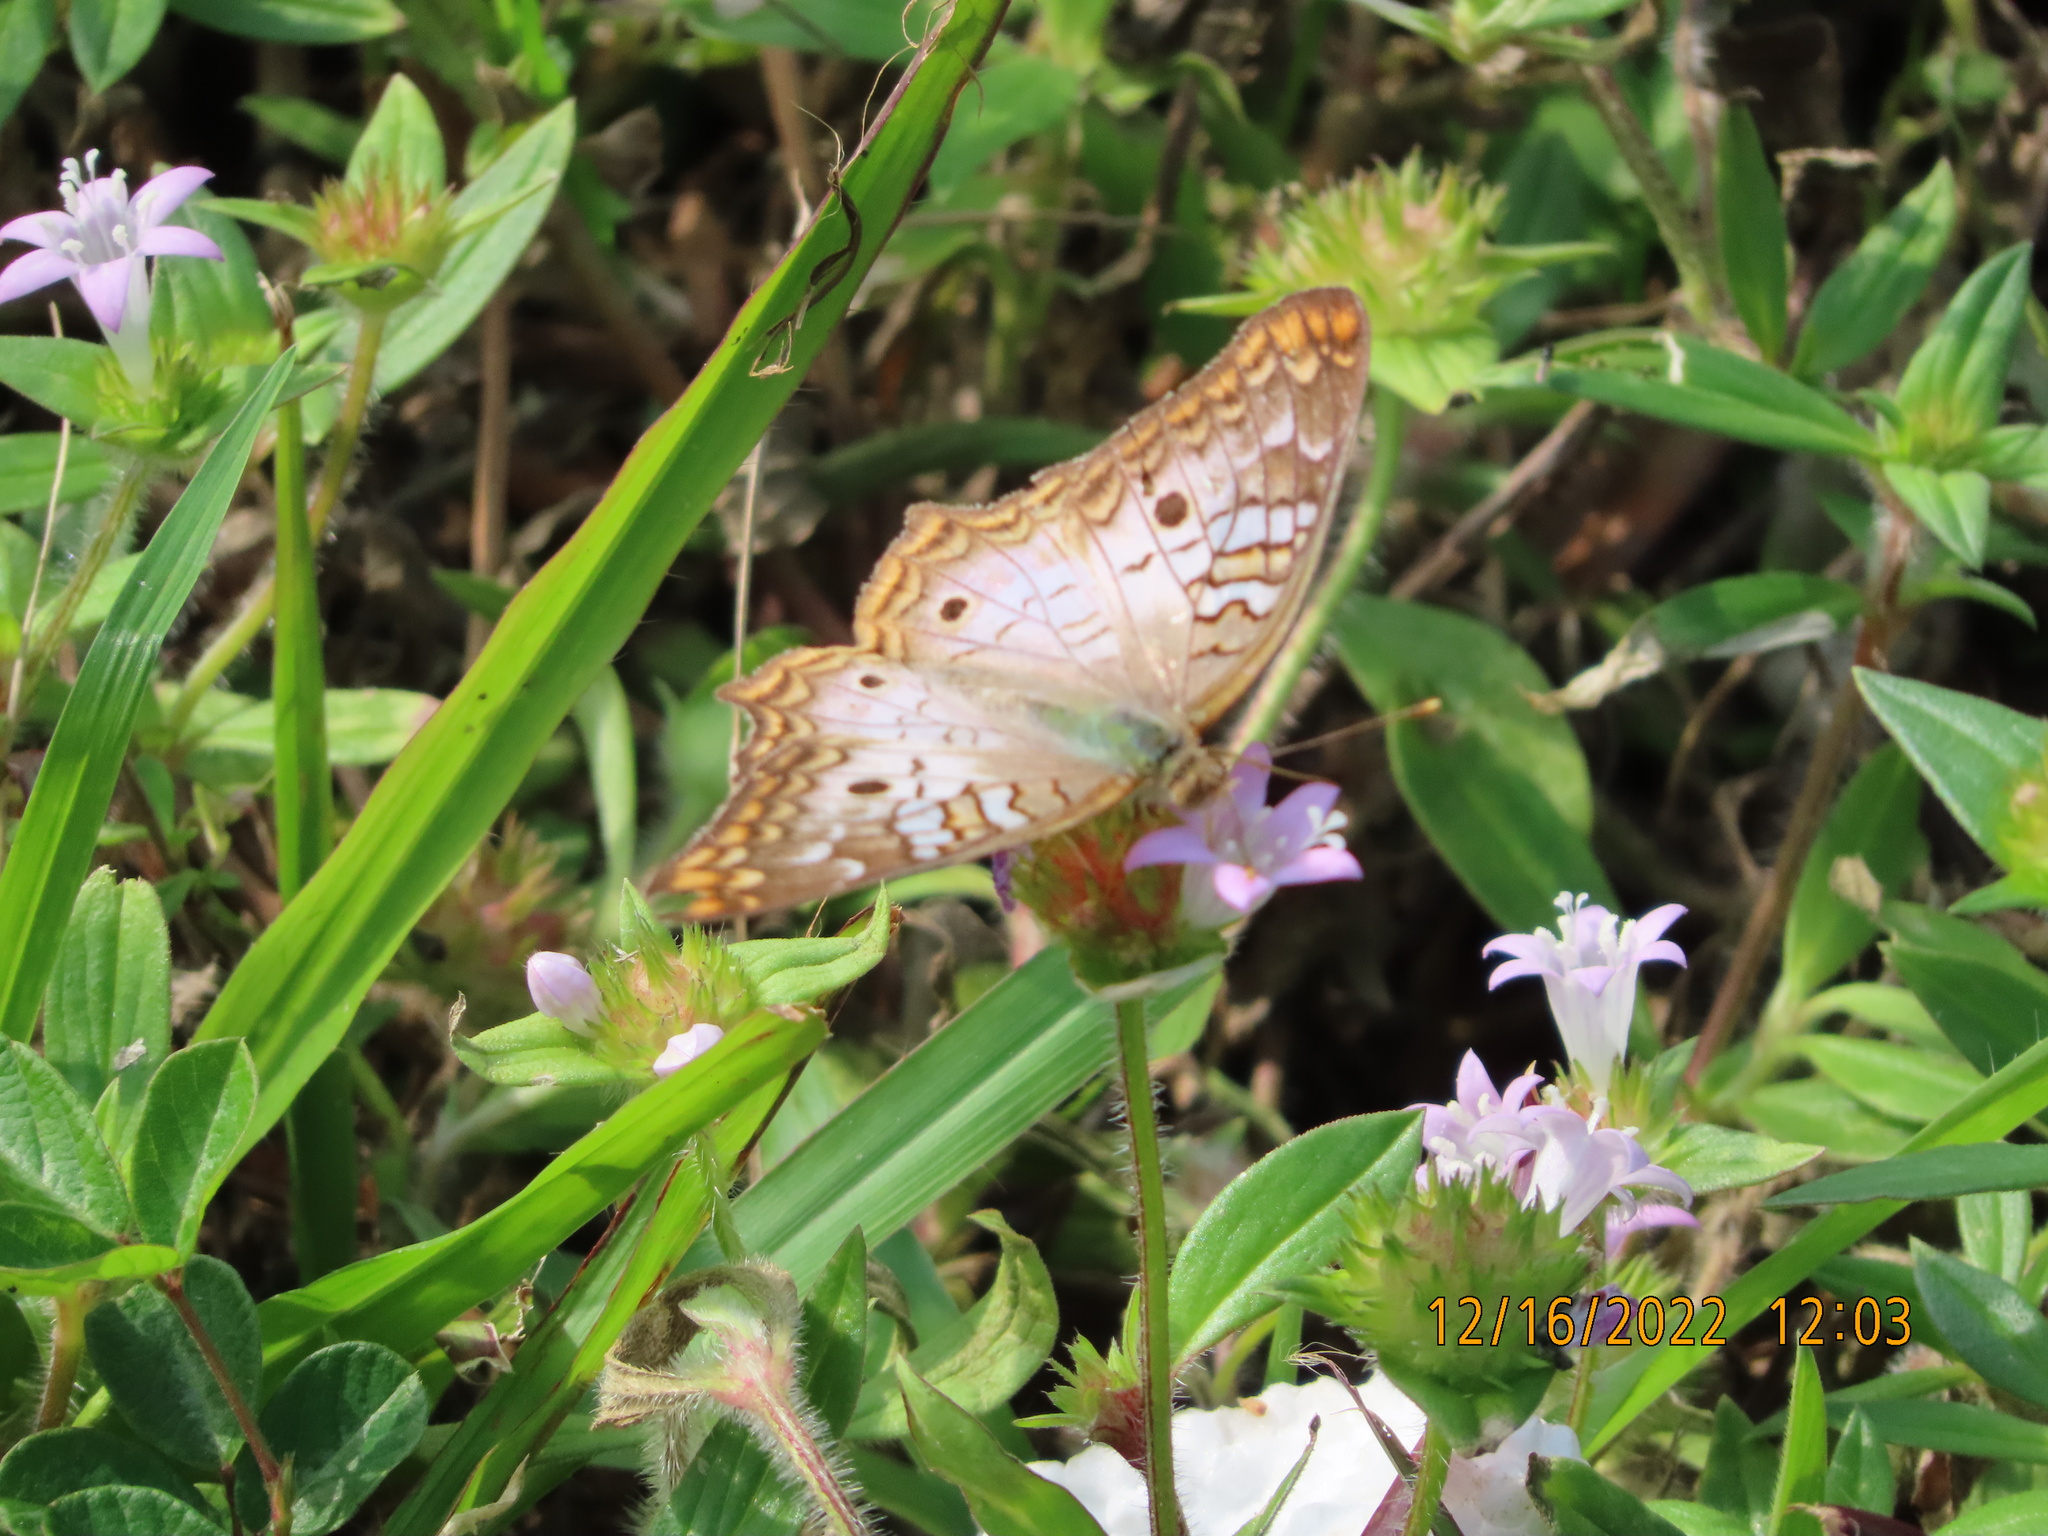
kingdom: Animalia
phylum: Arthropoda
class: Insecta
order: Lepidoptera
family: Nymphalidae
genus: Anartia
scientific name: Anartia jatrophae
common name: White peacock
